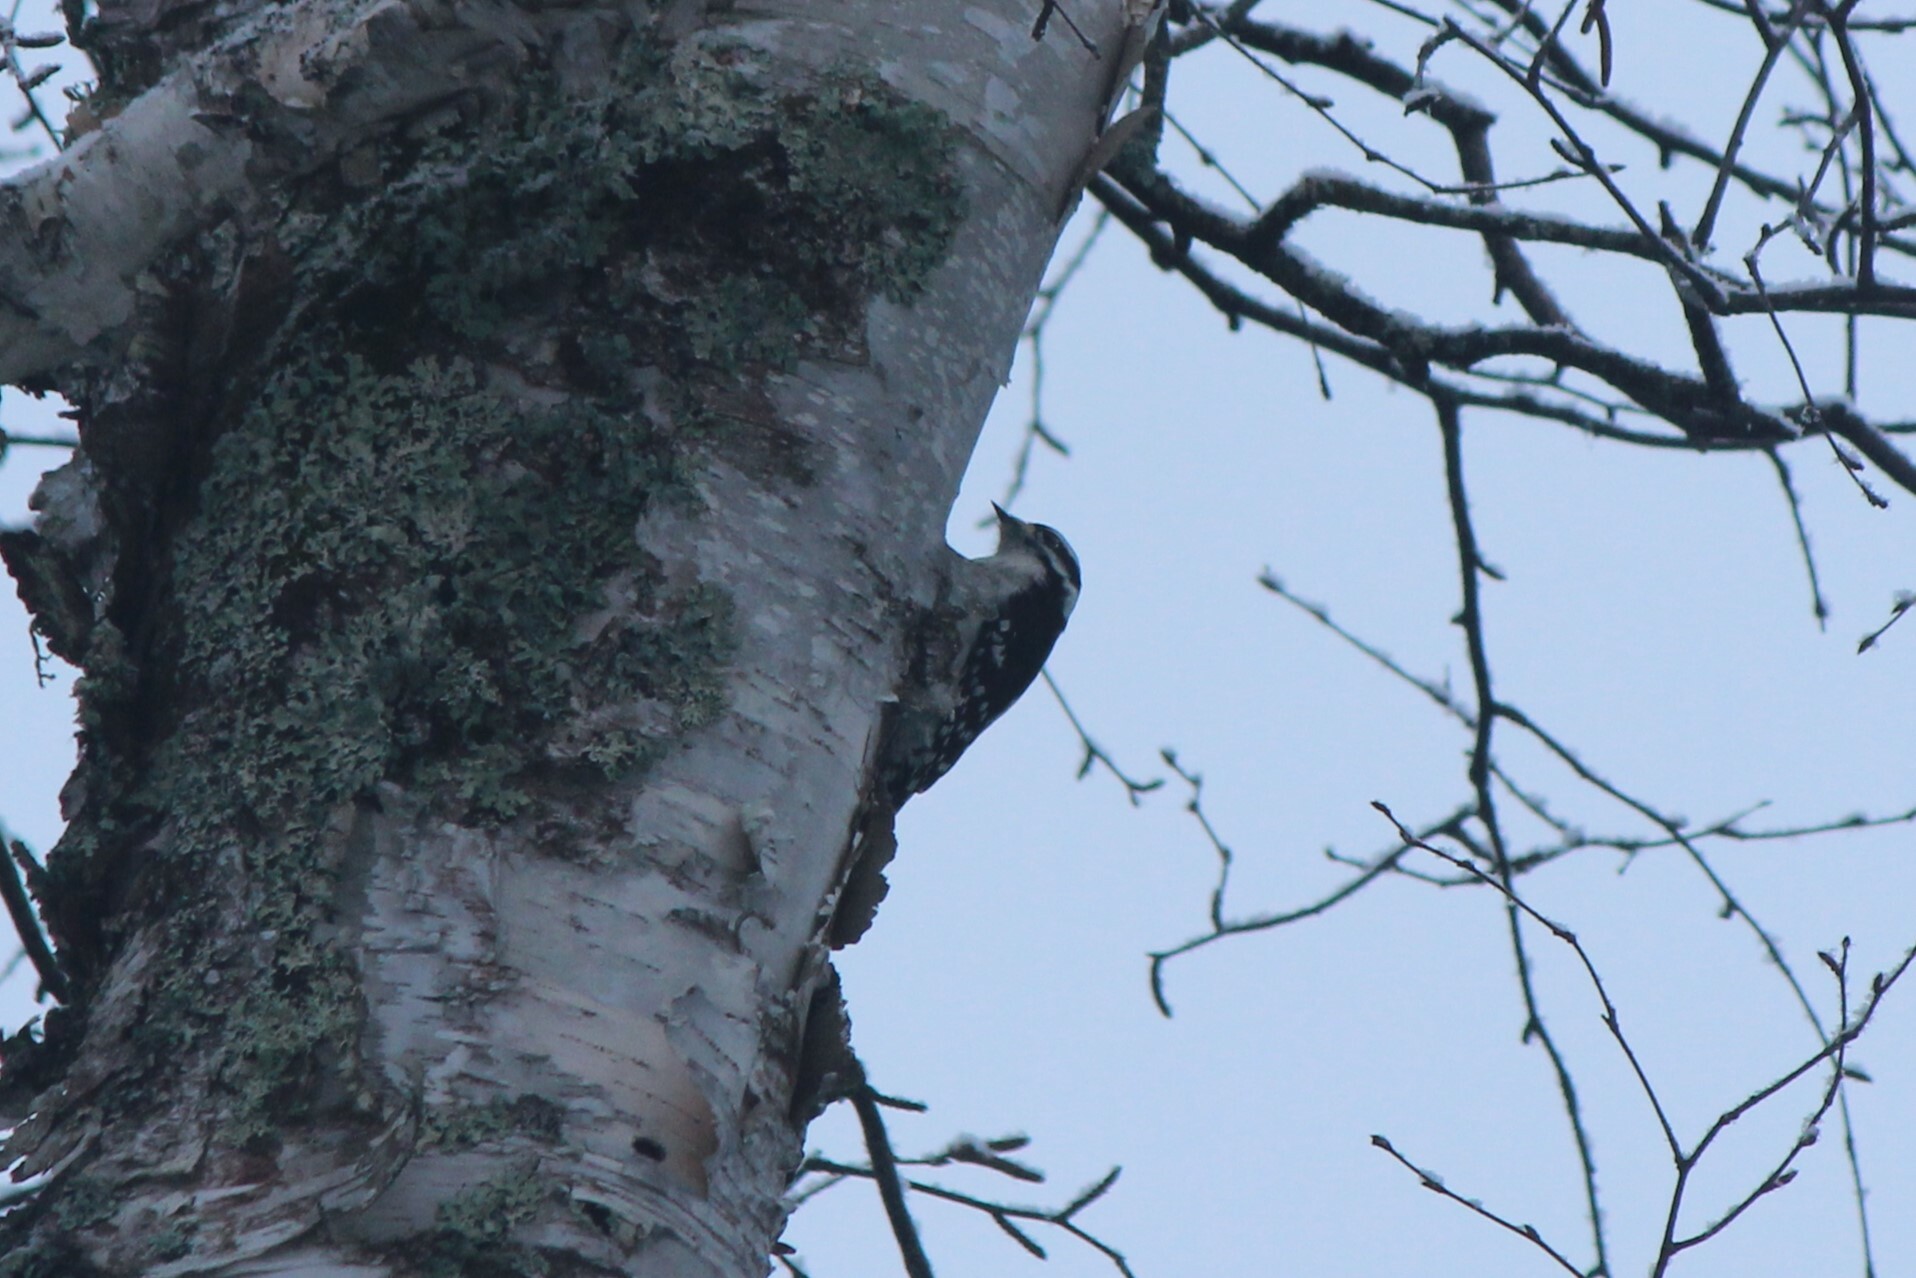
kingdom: Animalia
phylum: Chordata
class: Aves
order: Piciformes
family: Picidae
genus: Dryobates
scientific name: Dryobates pubescens
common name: Downy woodpecker
